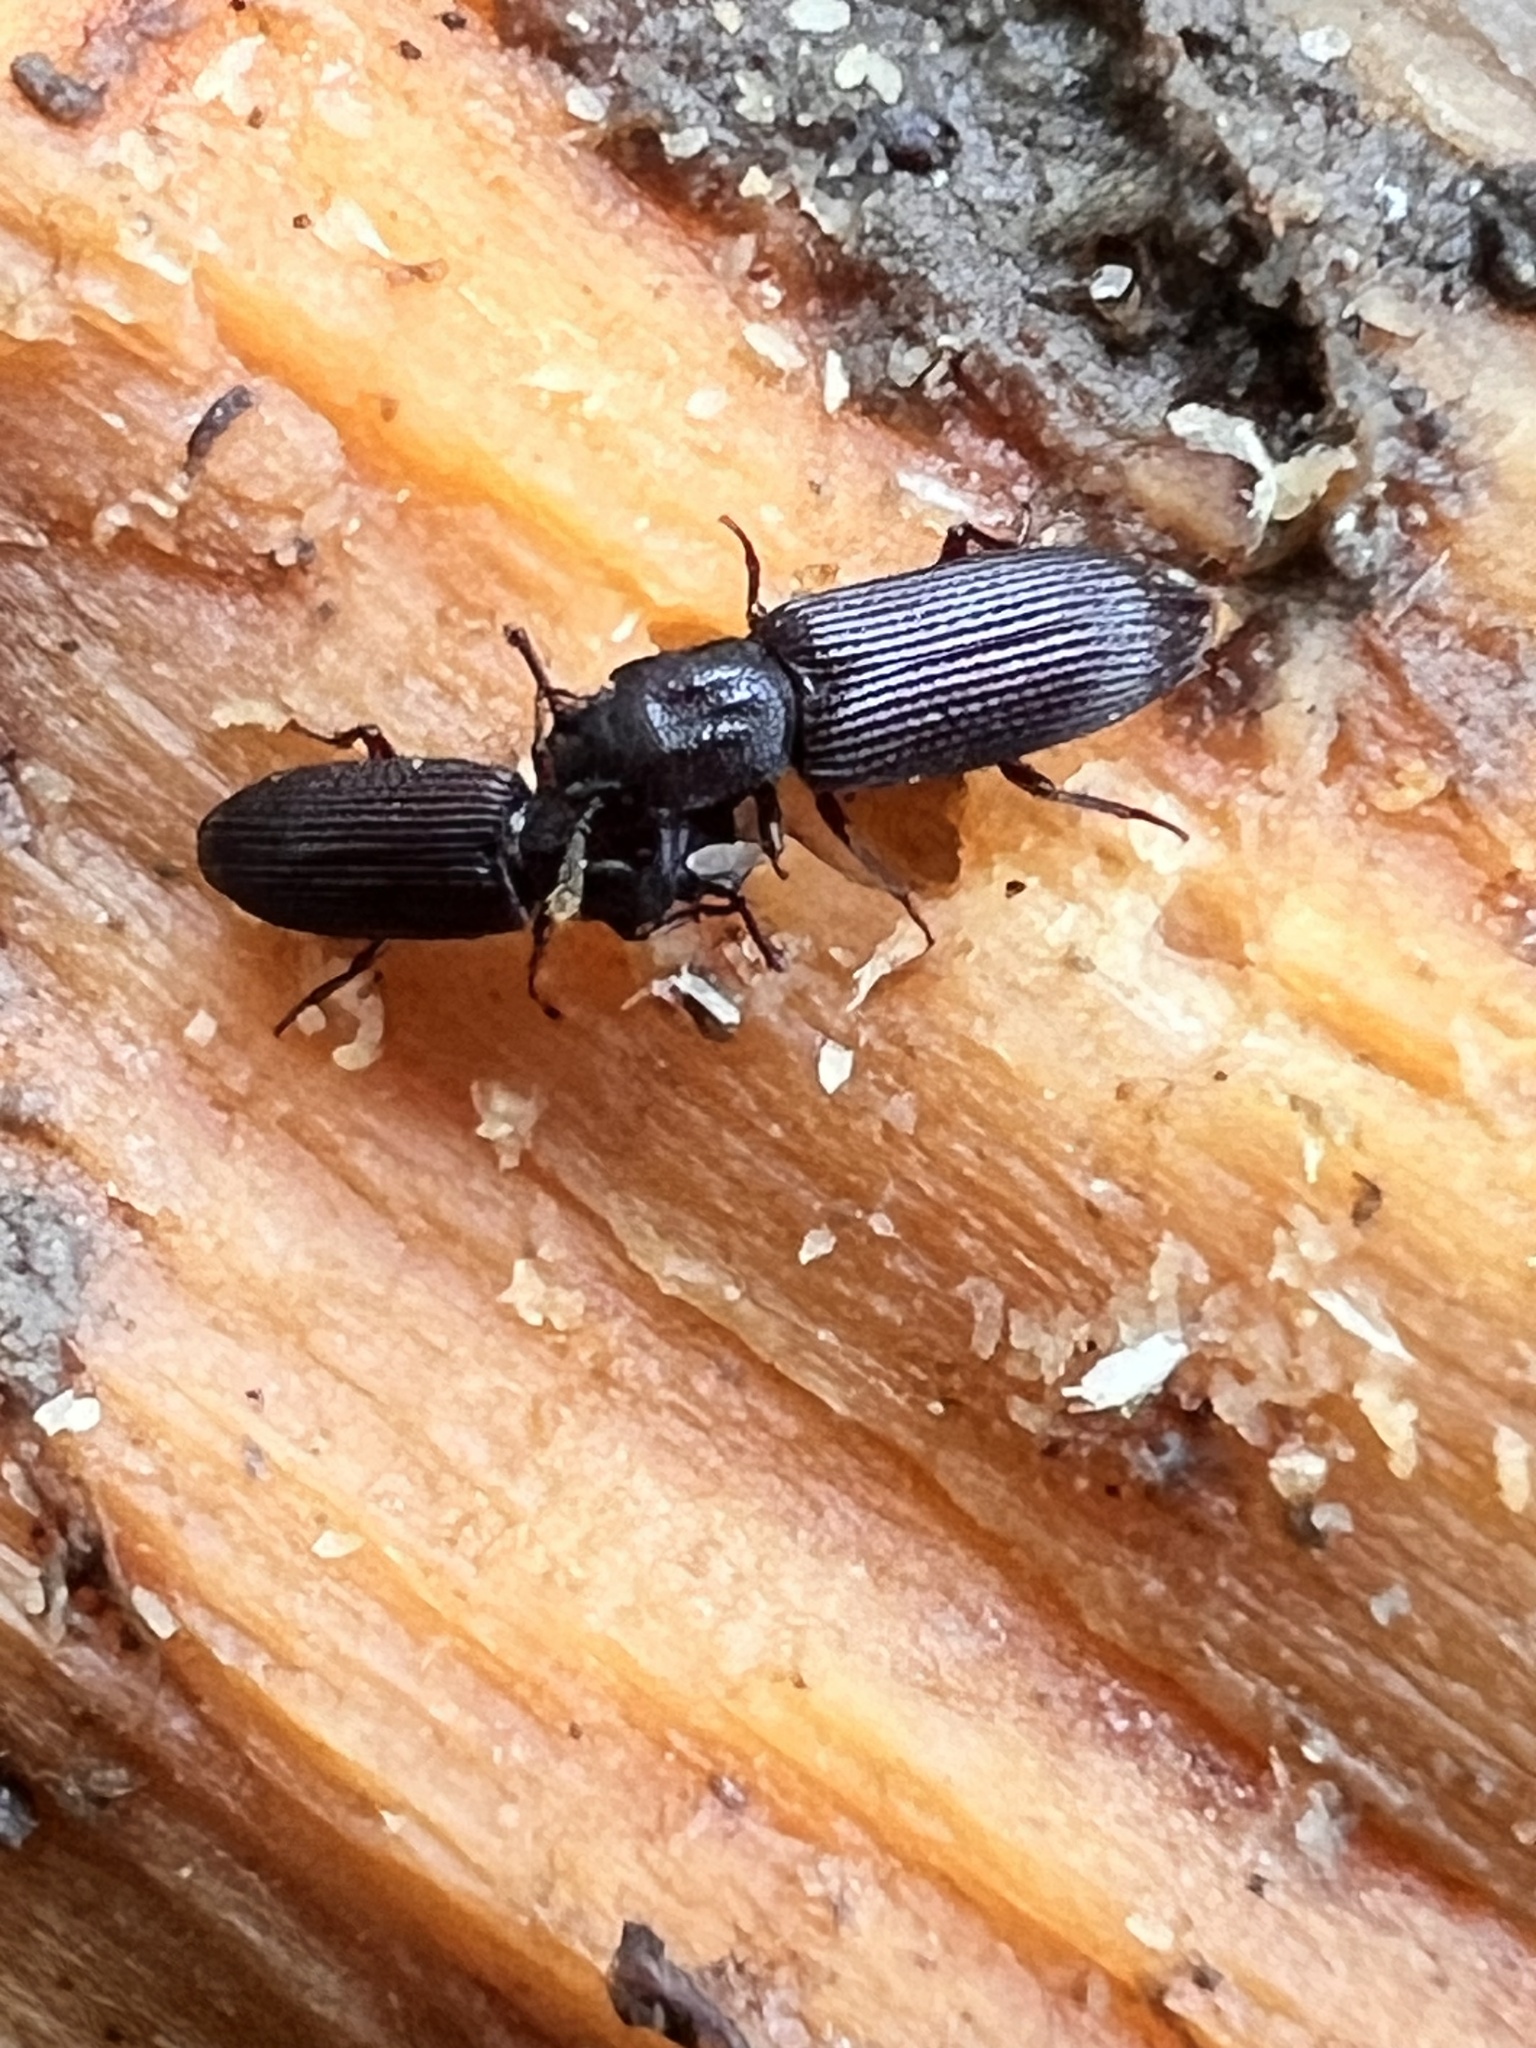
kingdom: Animalia
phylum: Arthropoda
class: Insecta
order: Coleoptera
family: Zopheridae
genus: Pycnomerus
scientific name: Pycnomerus
